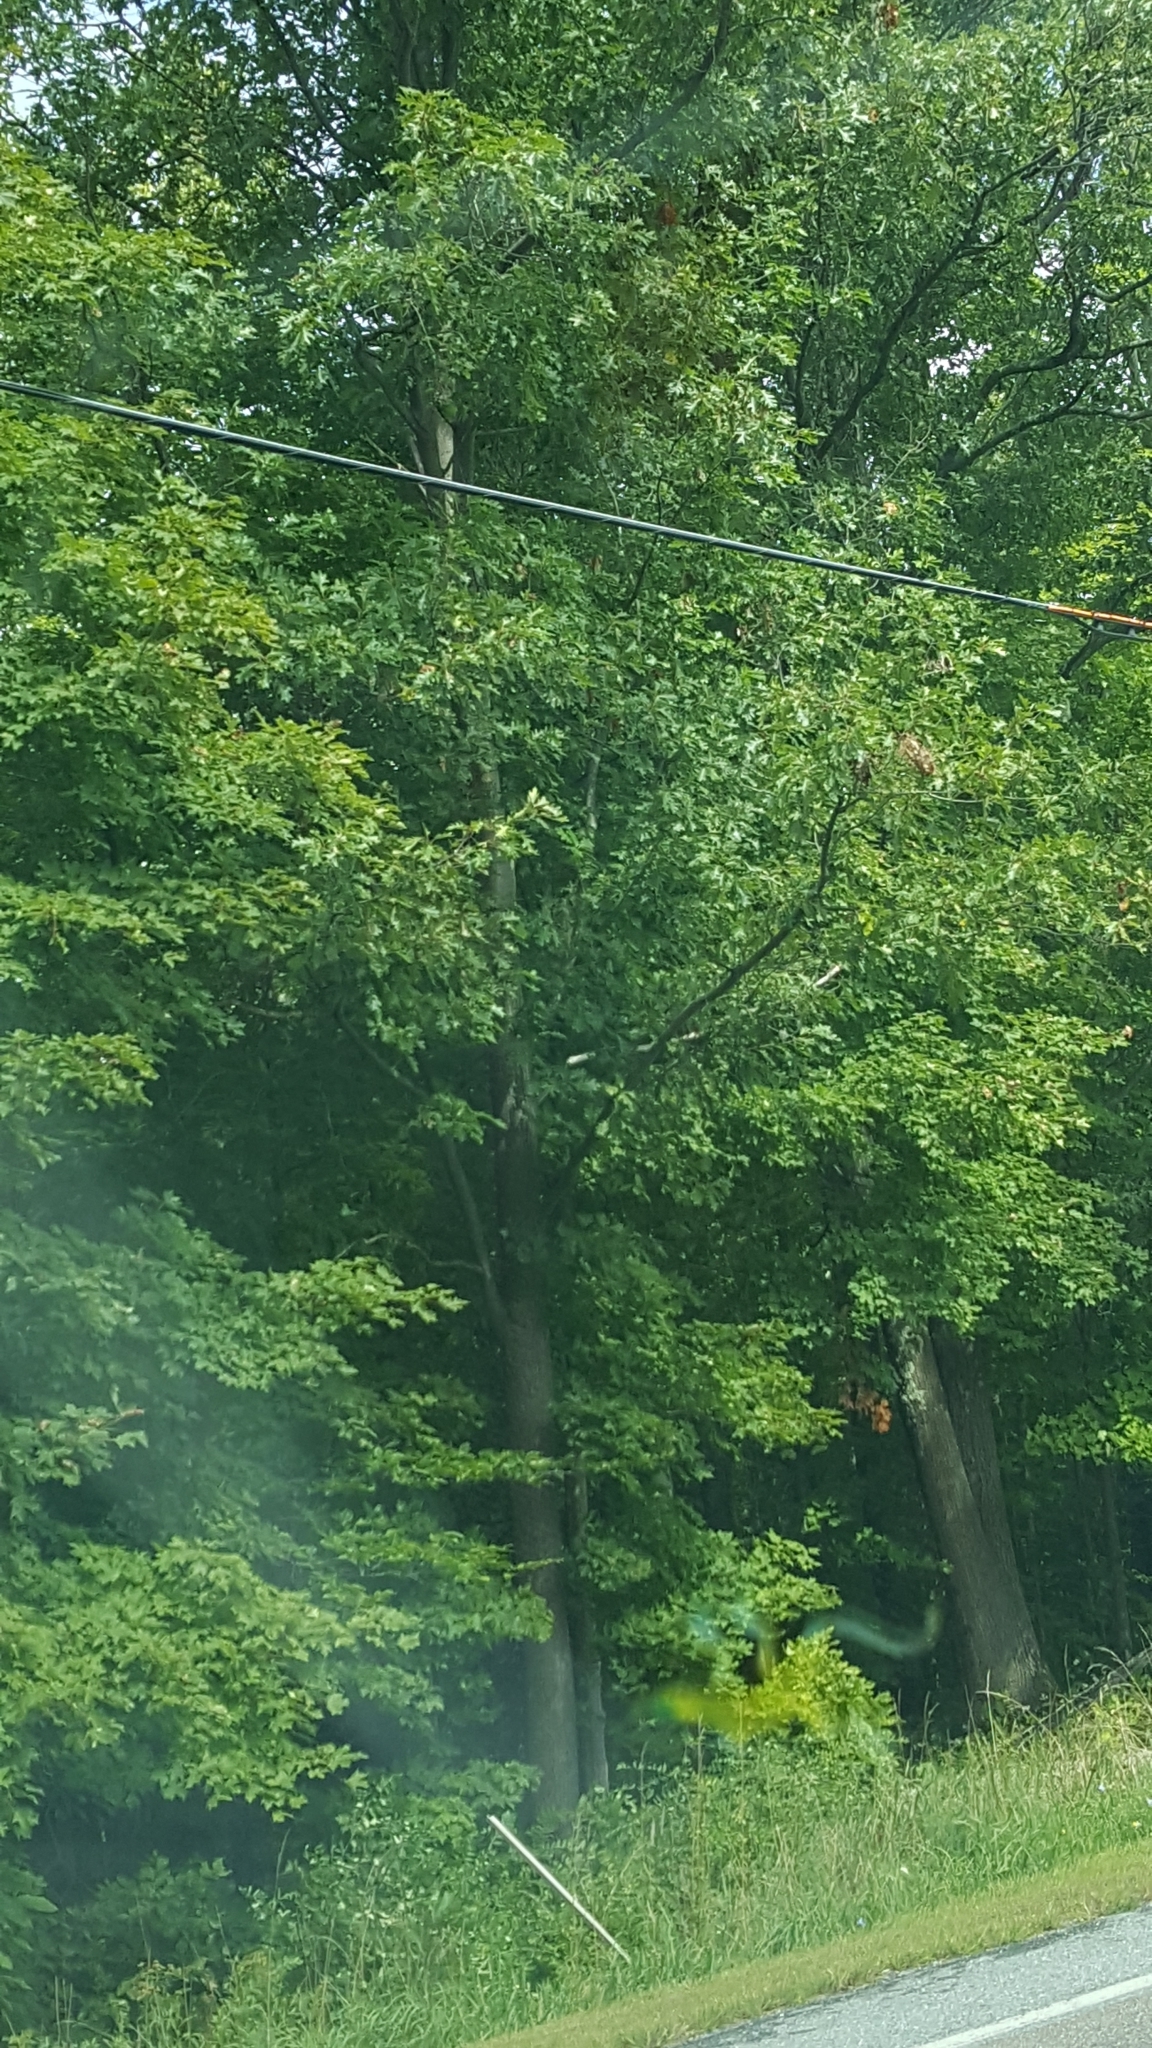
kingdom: Plantae
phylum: Tracheophyta
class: Magnoliopsida
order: Fagales
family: Fagaceae
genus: Quercus
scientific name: Quercus rubra
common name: Red oak
